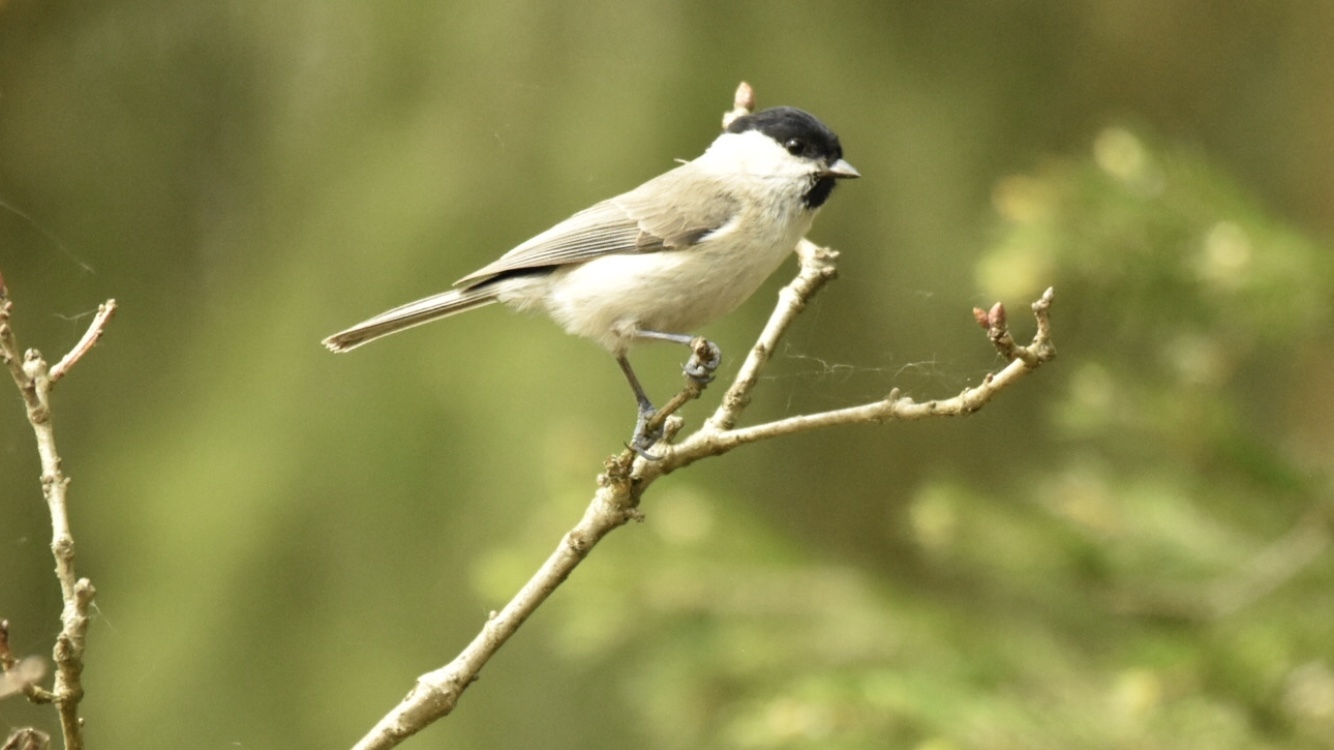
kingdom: Animalia
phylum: Chordata
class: Aves
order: Passeriformes
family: Paridae
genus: Poecile
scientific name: Poecile palustris
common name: Marsh tit
